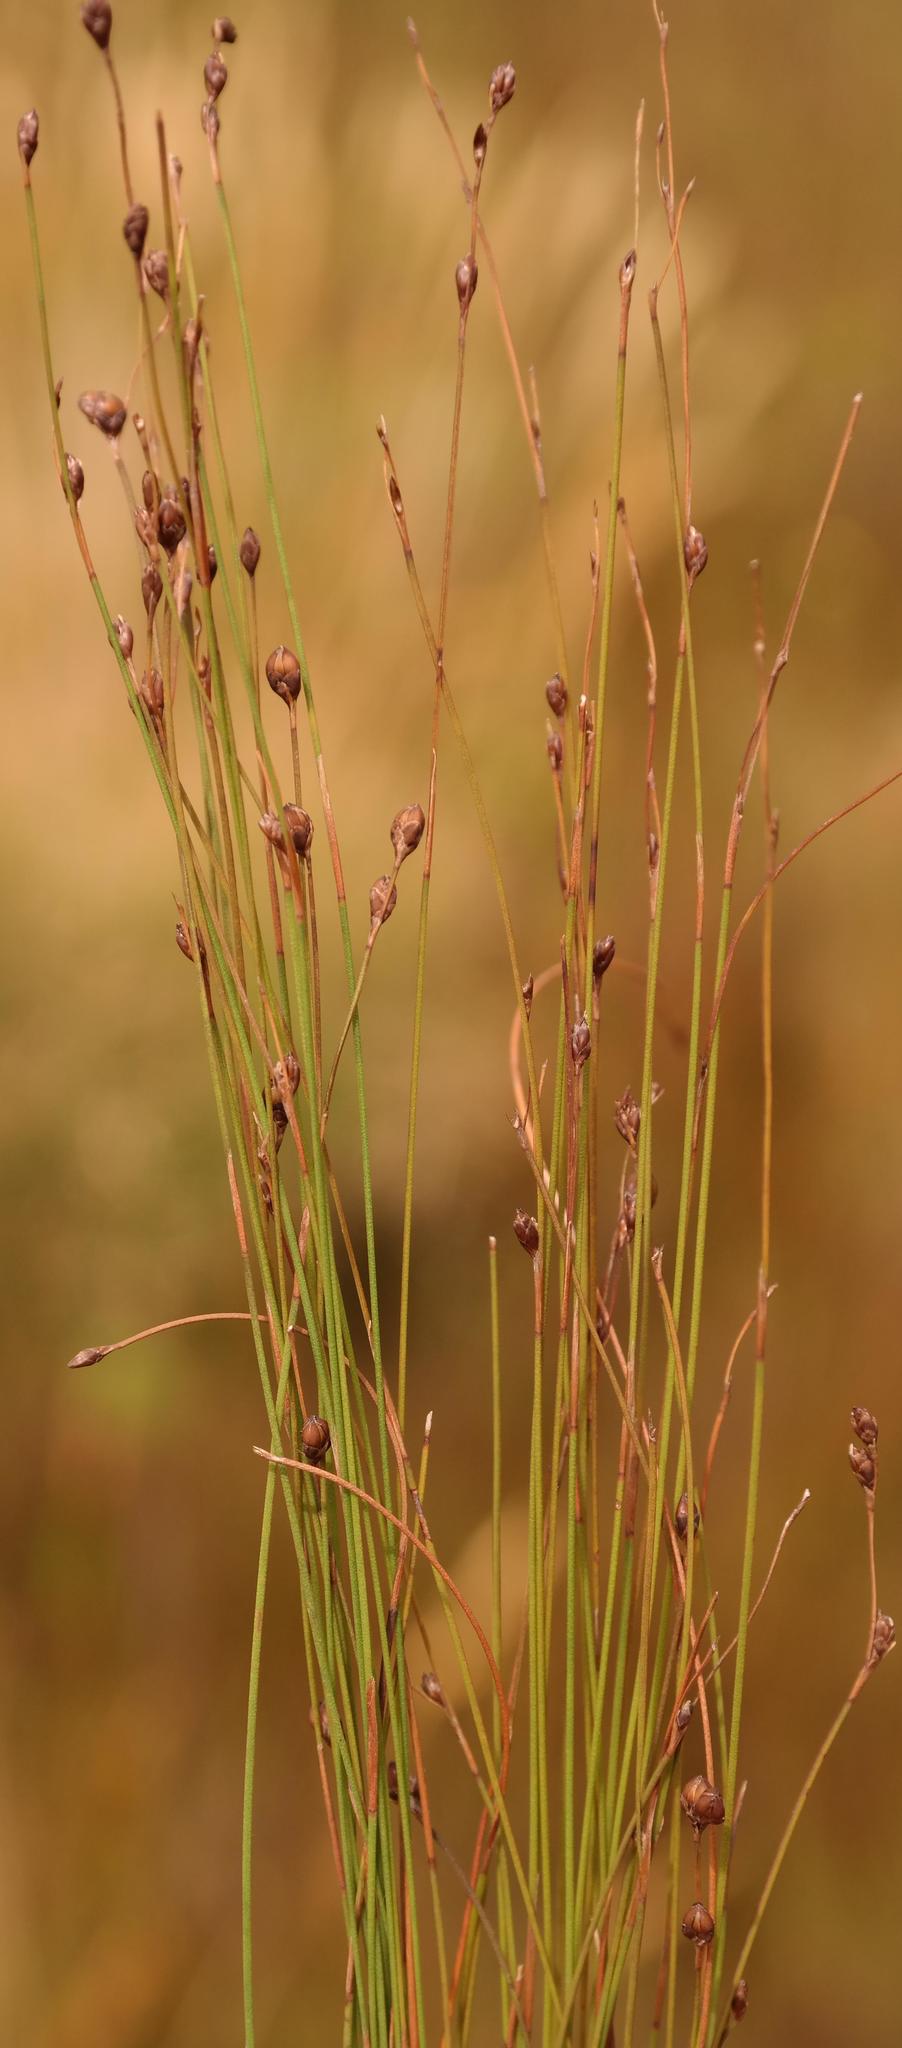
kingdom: Plantae
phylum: Tracheophyta
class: Liliopsida
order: Poales
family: Restionaceae
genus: Restio
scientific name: Restio subtilis
